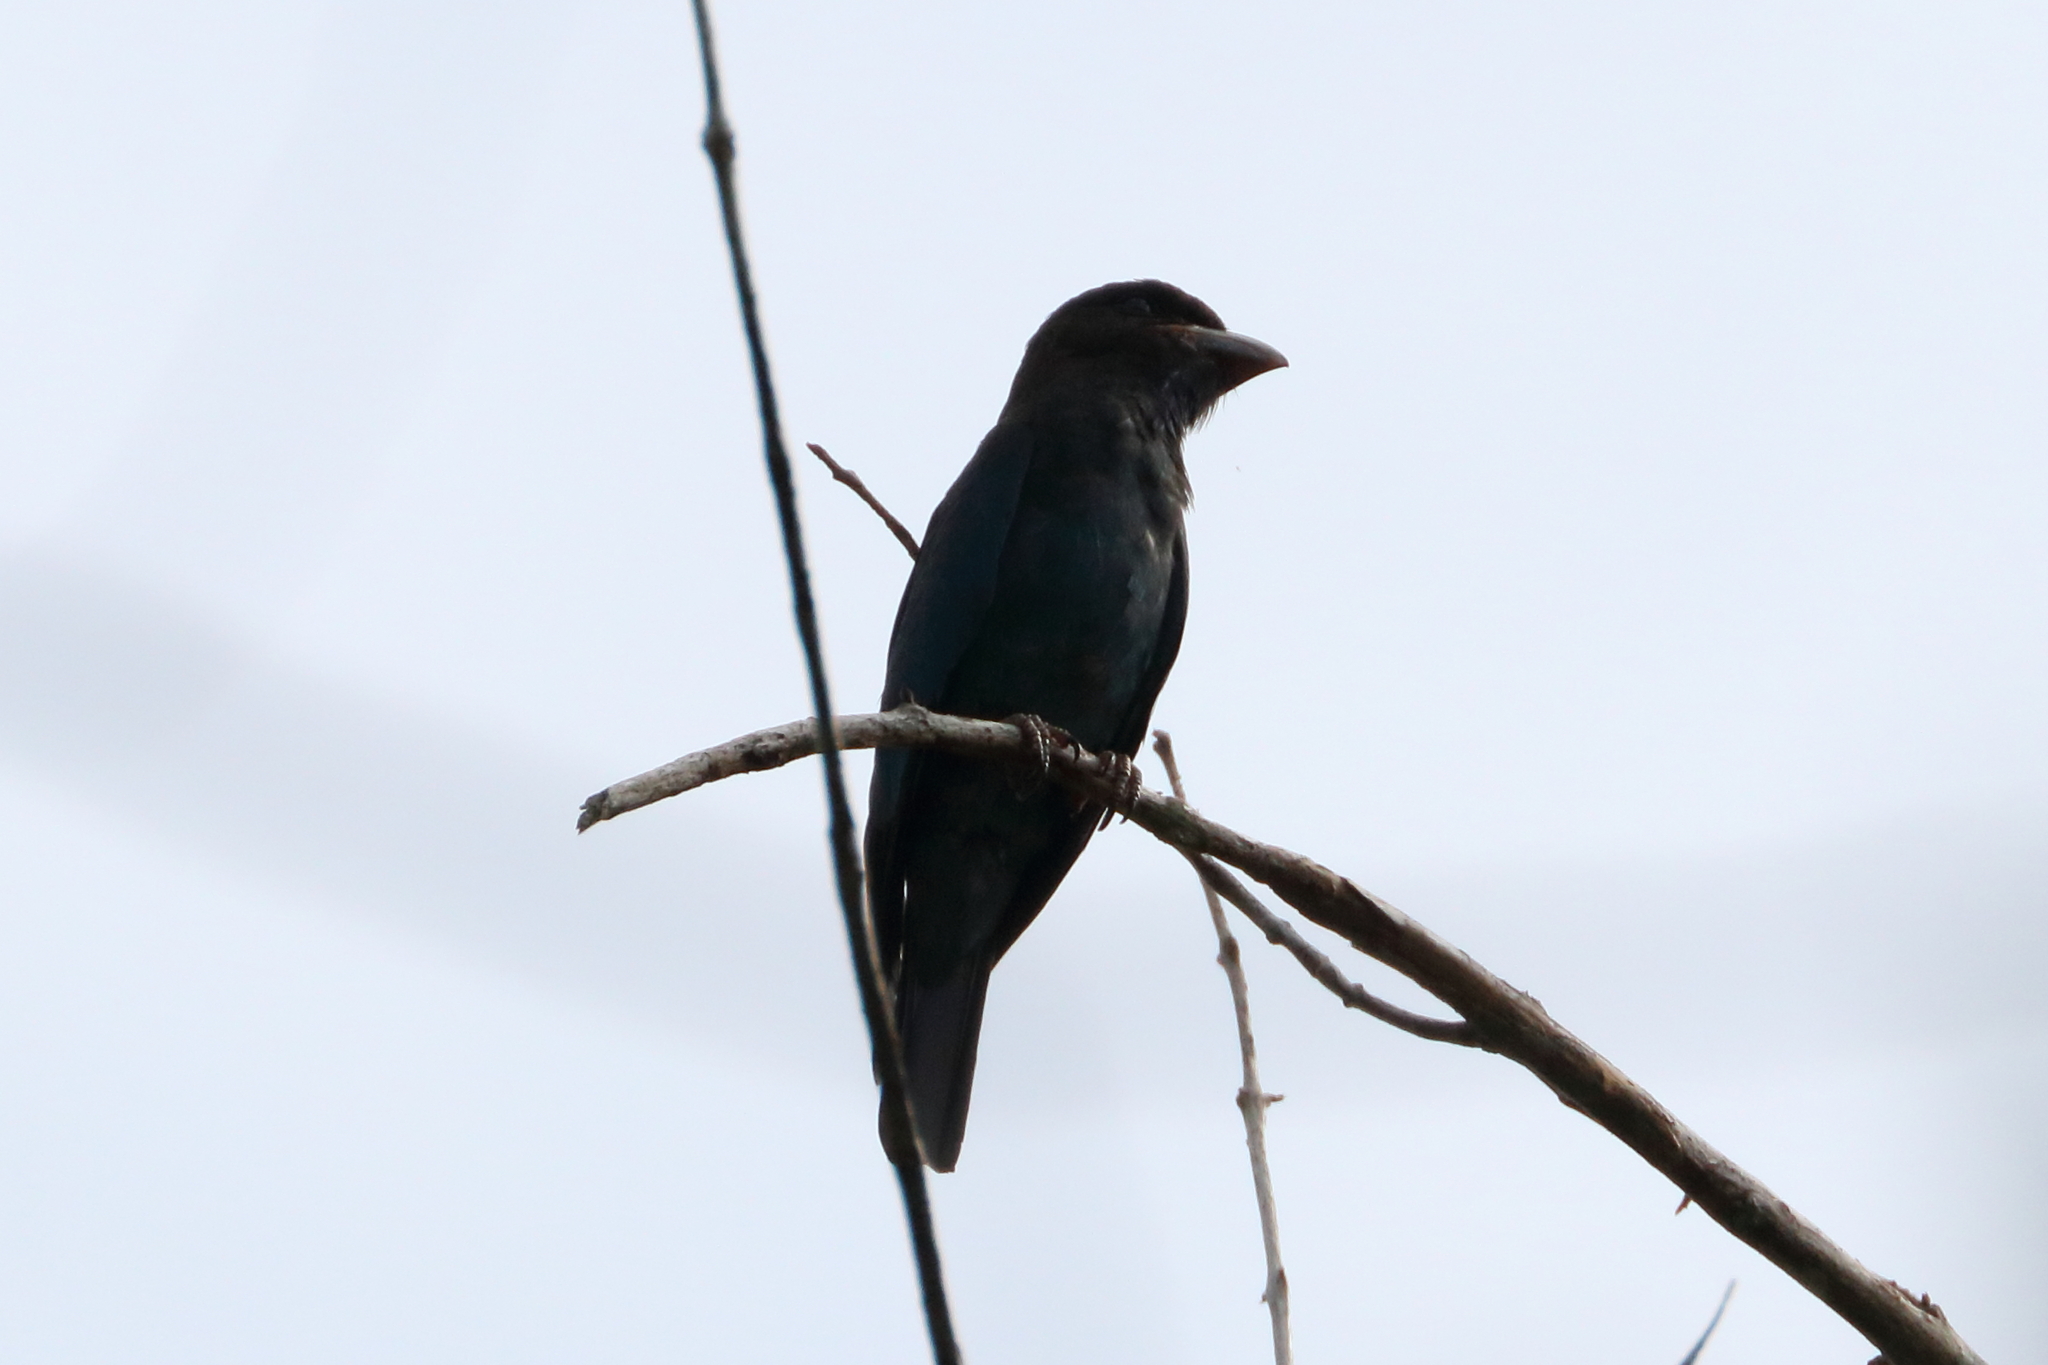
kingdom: Animalia
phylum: Chordata
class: Aves
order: Coraciiformes
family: Coraciidae
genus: Eurystomus
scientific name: Eurystomus orientalis
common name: Oriental dollarbird
